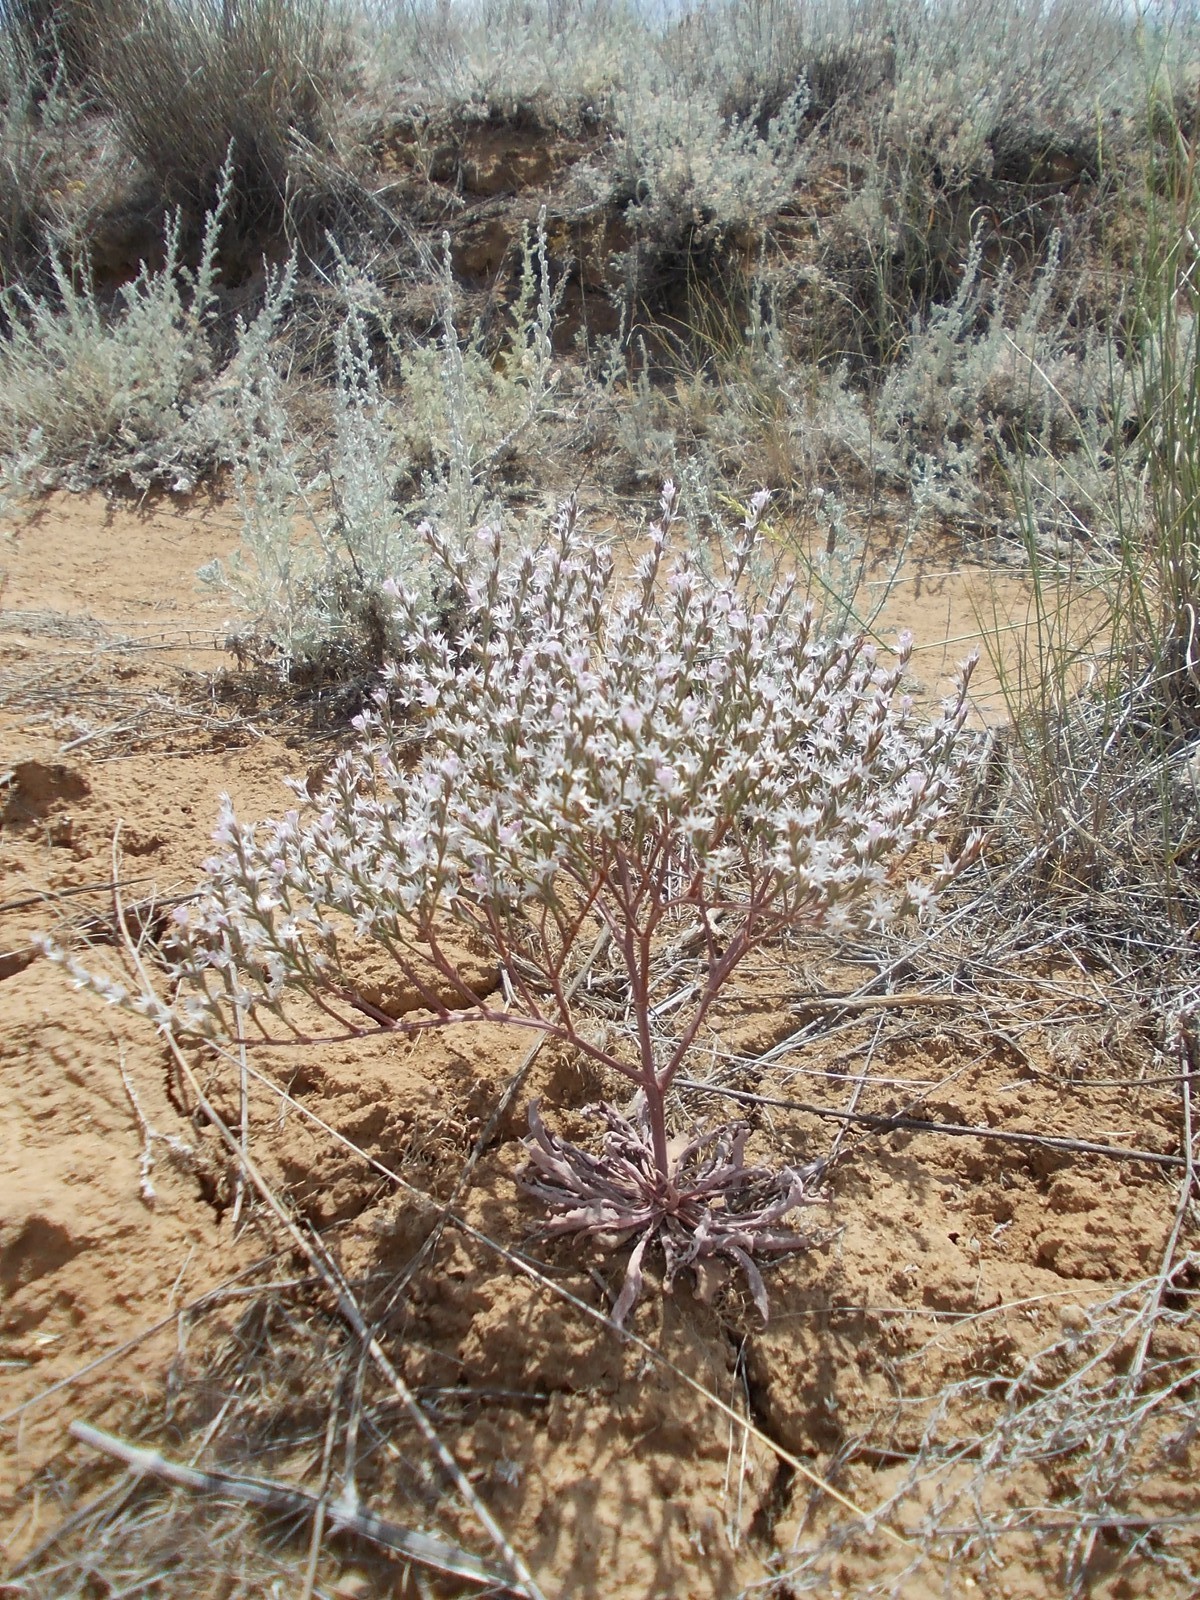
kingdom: Plantae
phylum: Tracheophyta
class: Magnoliopsida
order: Caryophyllales
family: Plumbaginaceae
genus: Goniolimon
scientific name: Goniolimon rubellum
